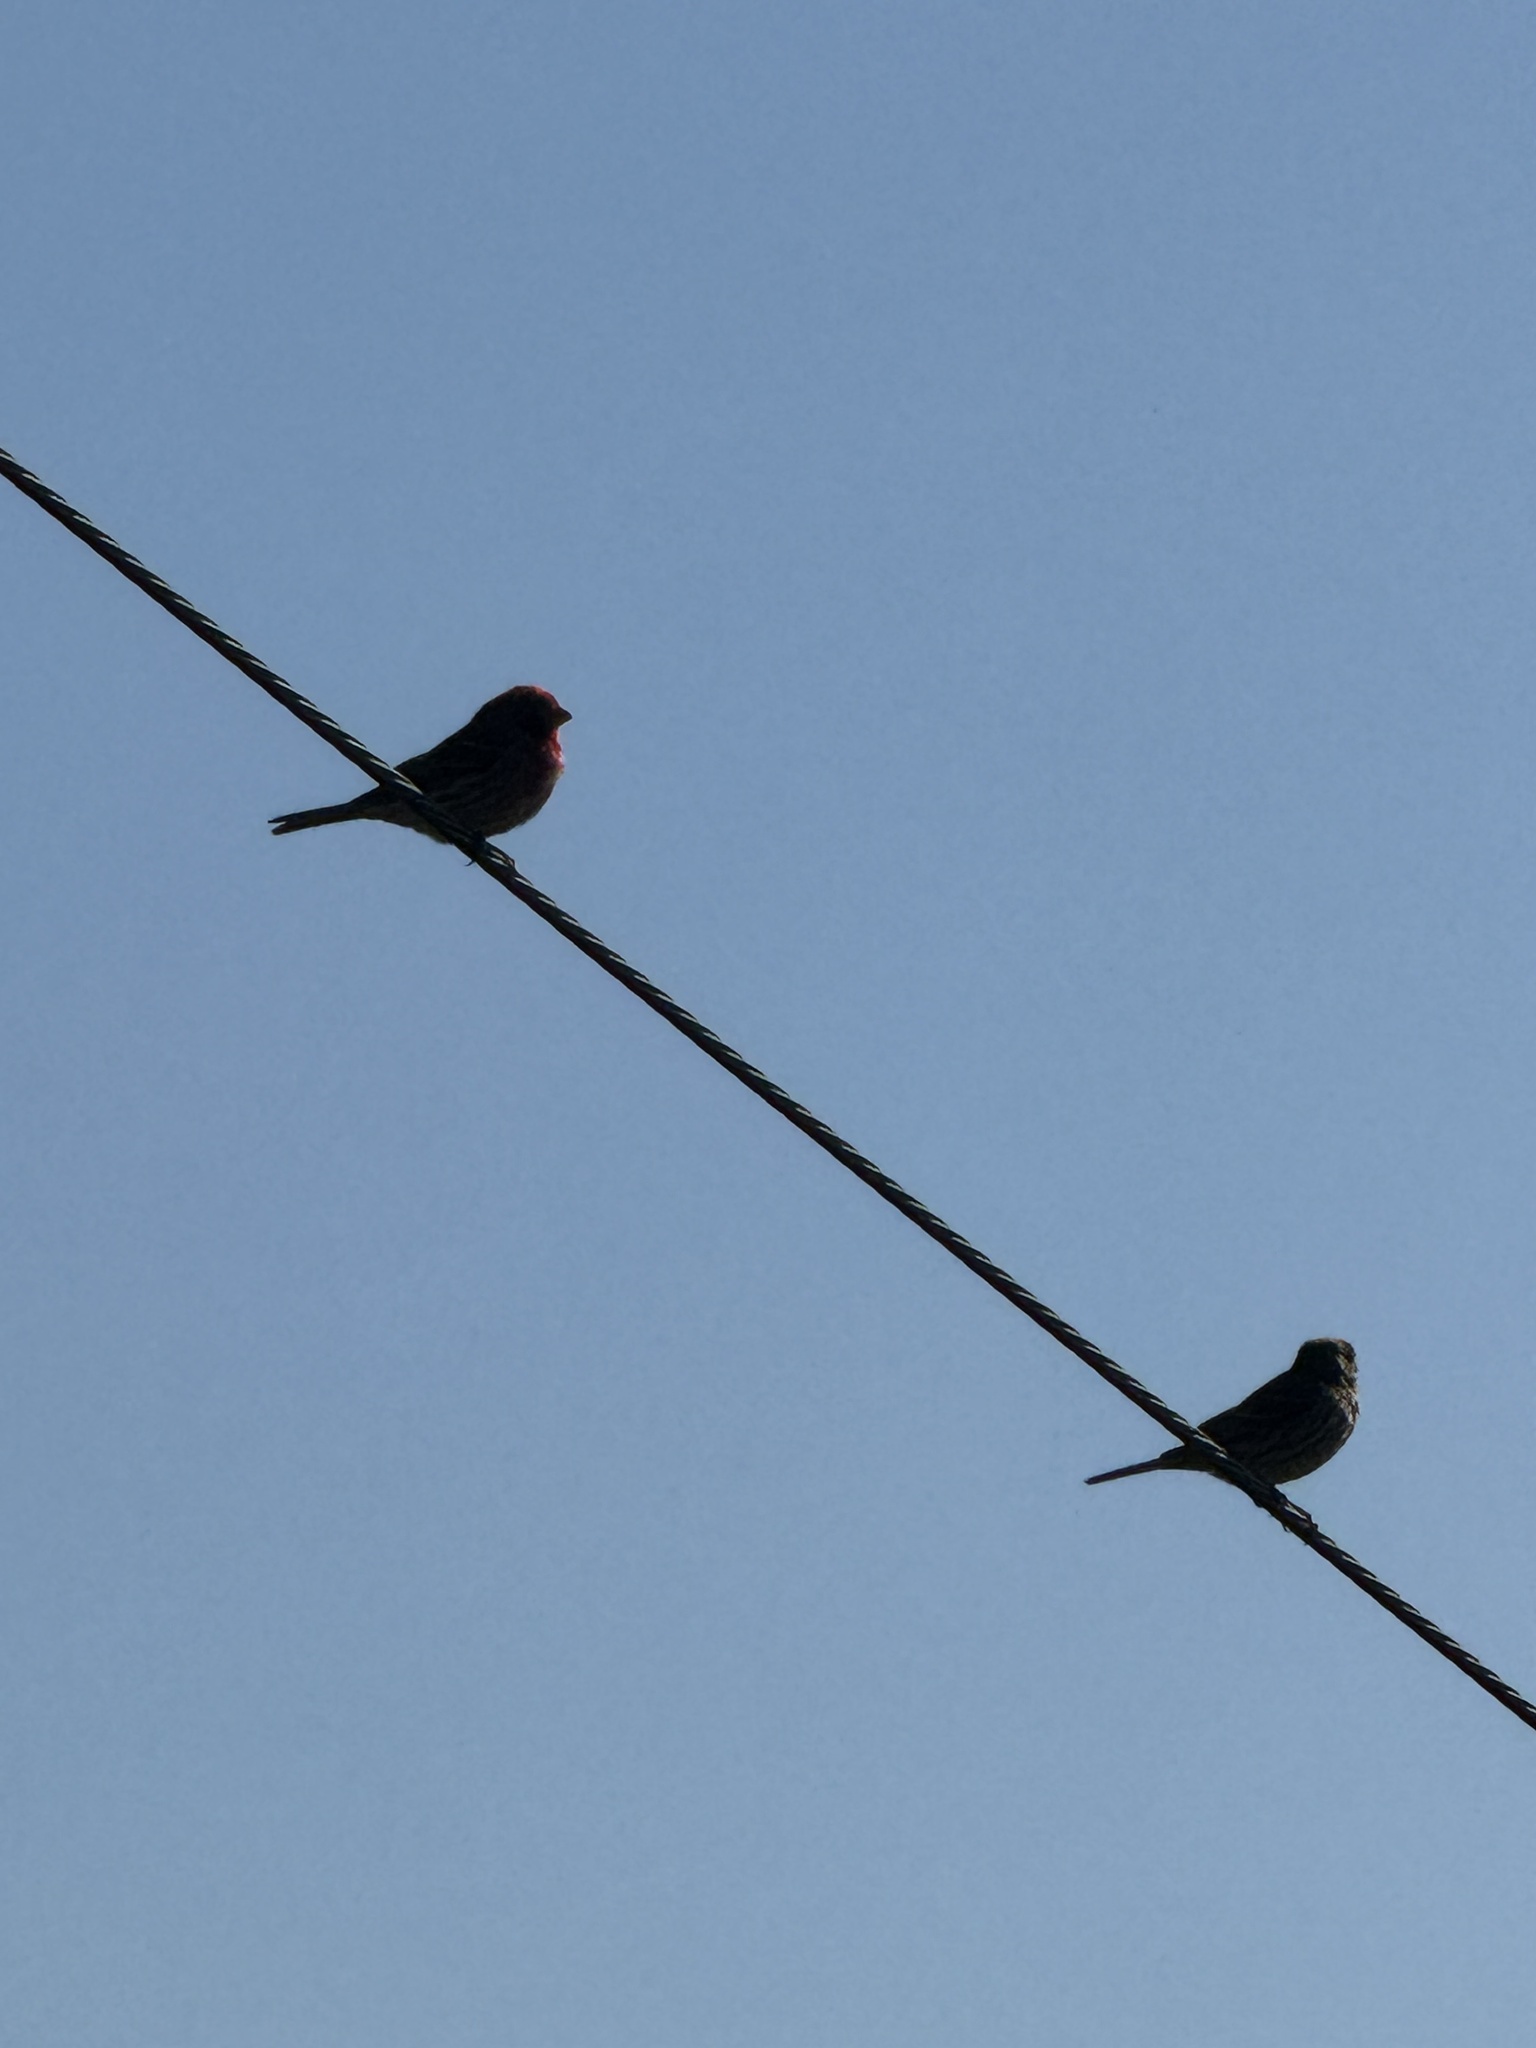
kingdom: Animalia
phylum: Chordata
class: Aves
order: Passeriformes
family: Fringillidae
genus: Haemorhous
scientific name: Haemorhous mexicanus
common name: House finch
